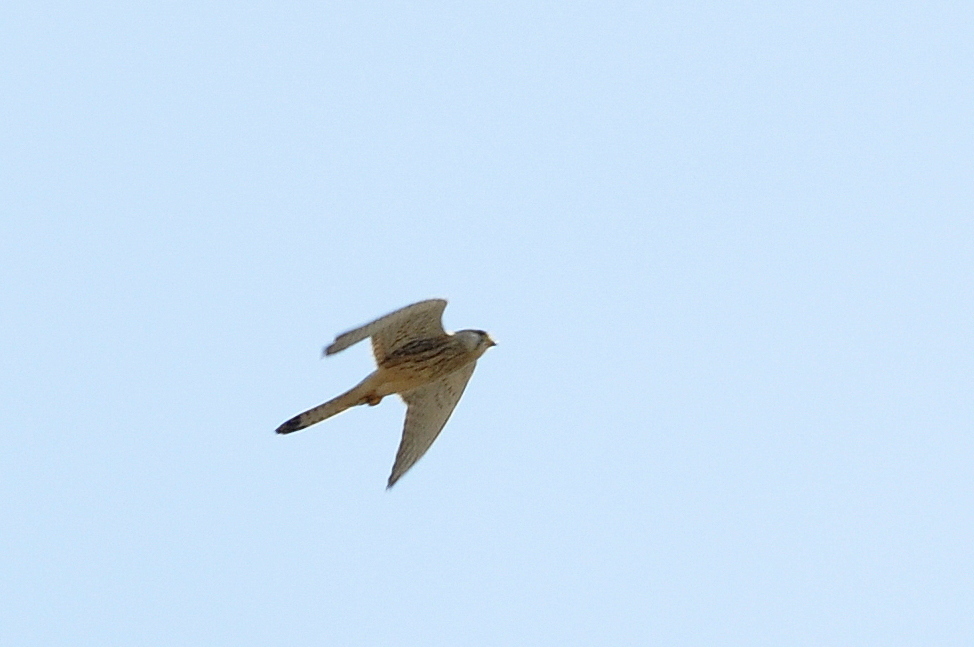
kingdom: Animalia
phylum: Chordata
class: Aves
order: Falconiformes
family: Falconidae
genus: Falco
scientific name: Falco tinnunculus
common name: Common kestrel
